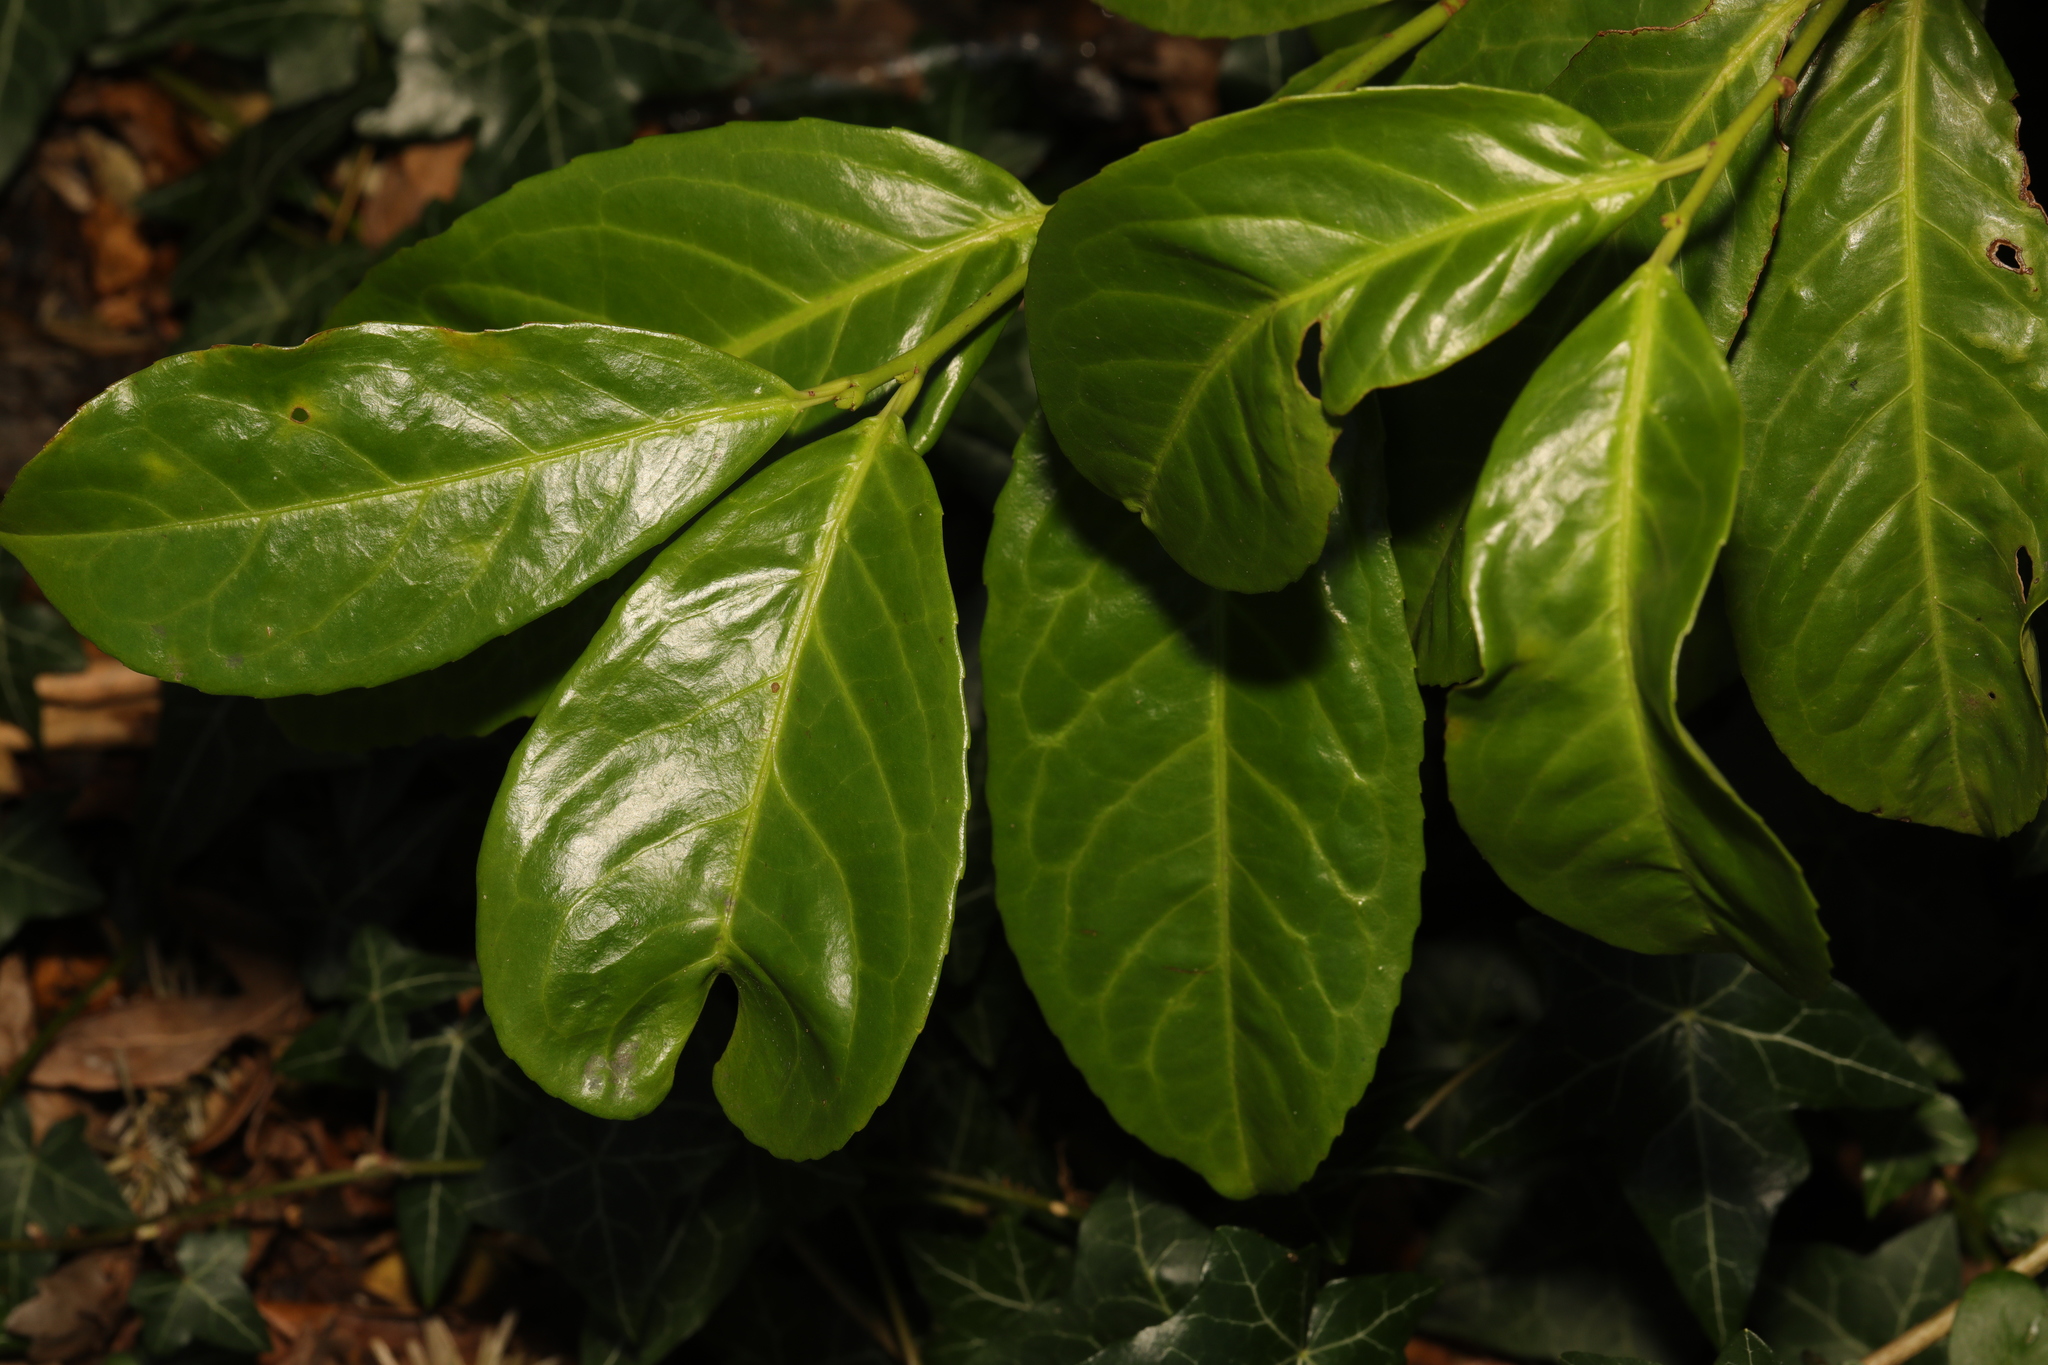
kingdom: Plantae
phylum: Tracheophyta
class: Magnoliopsida
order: Rosales
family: Rosaceae
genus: Prunus
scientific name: Prunus laurocerasus
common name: Cherry laurel
